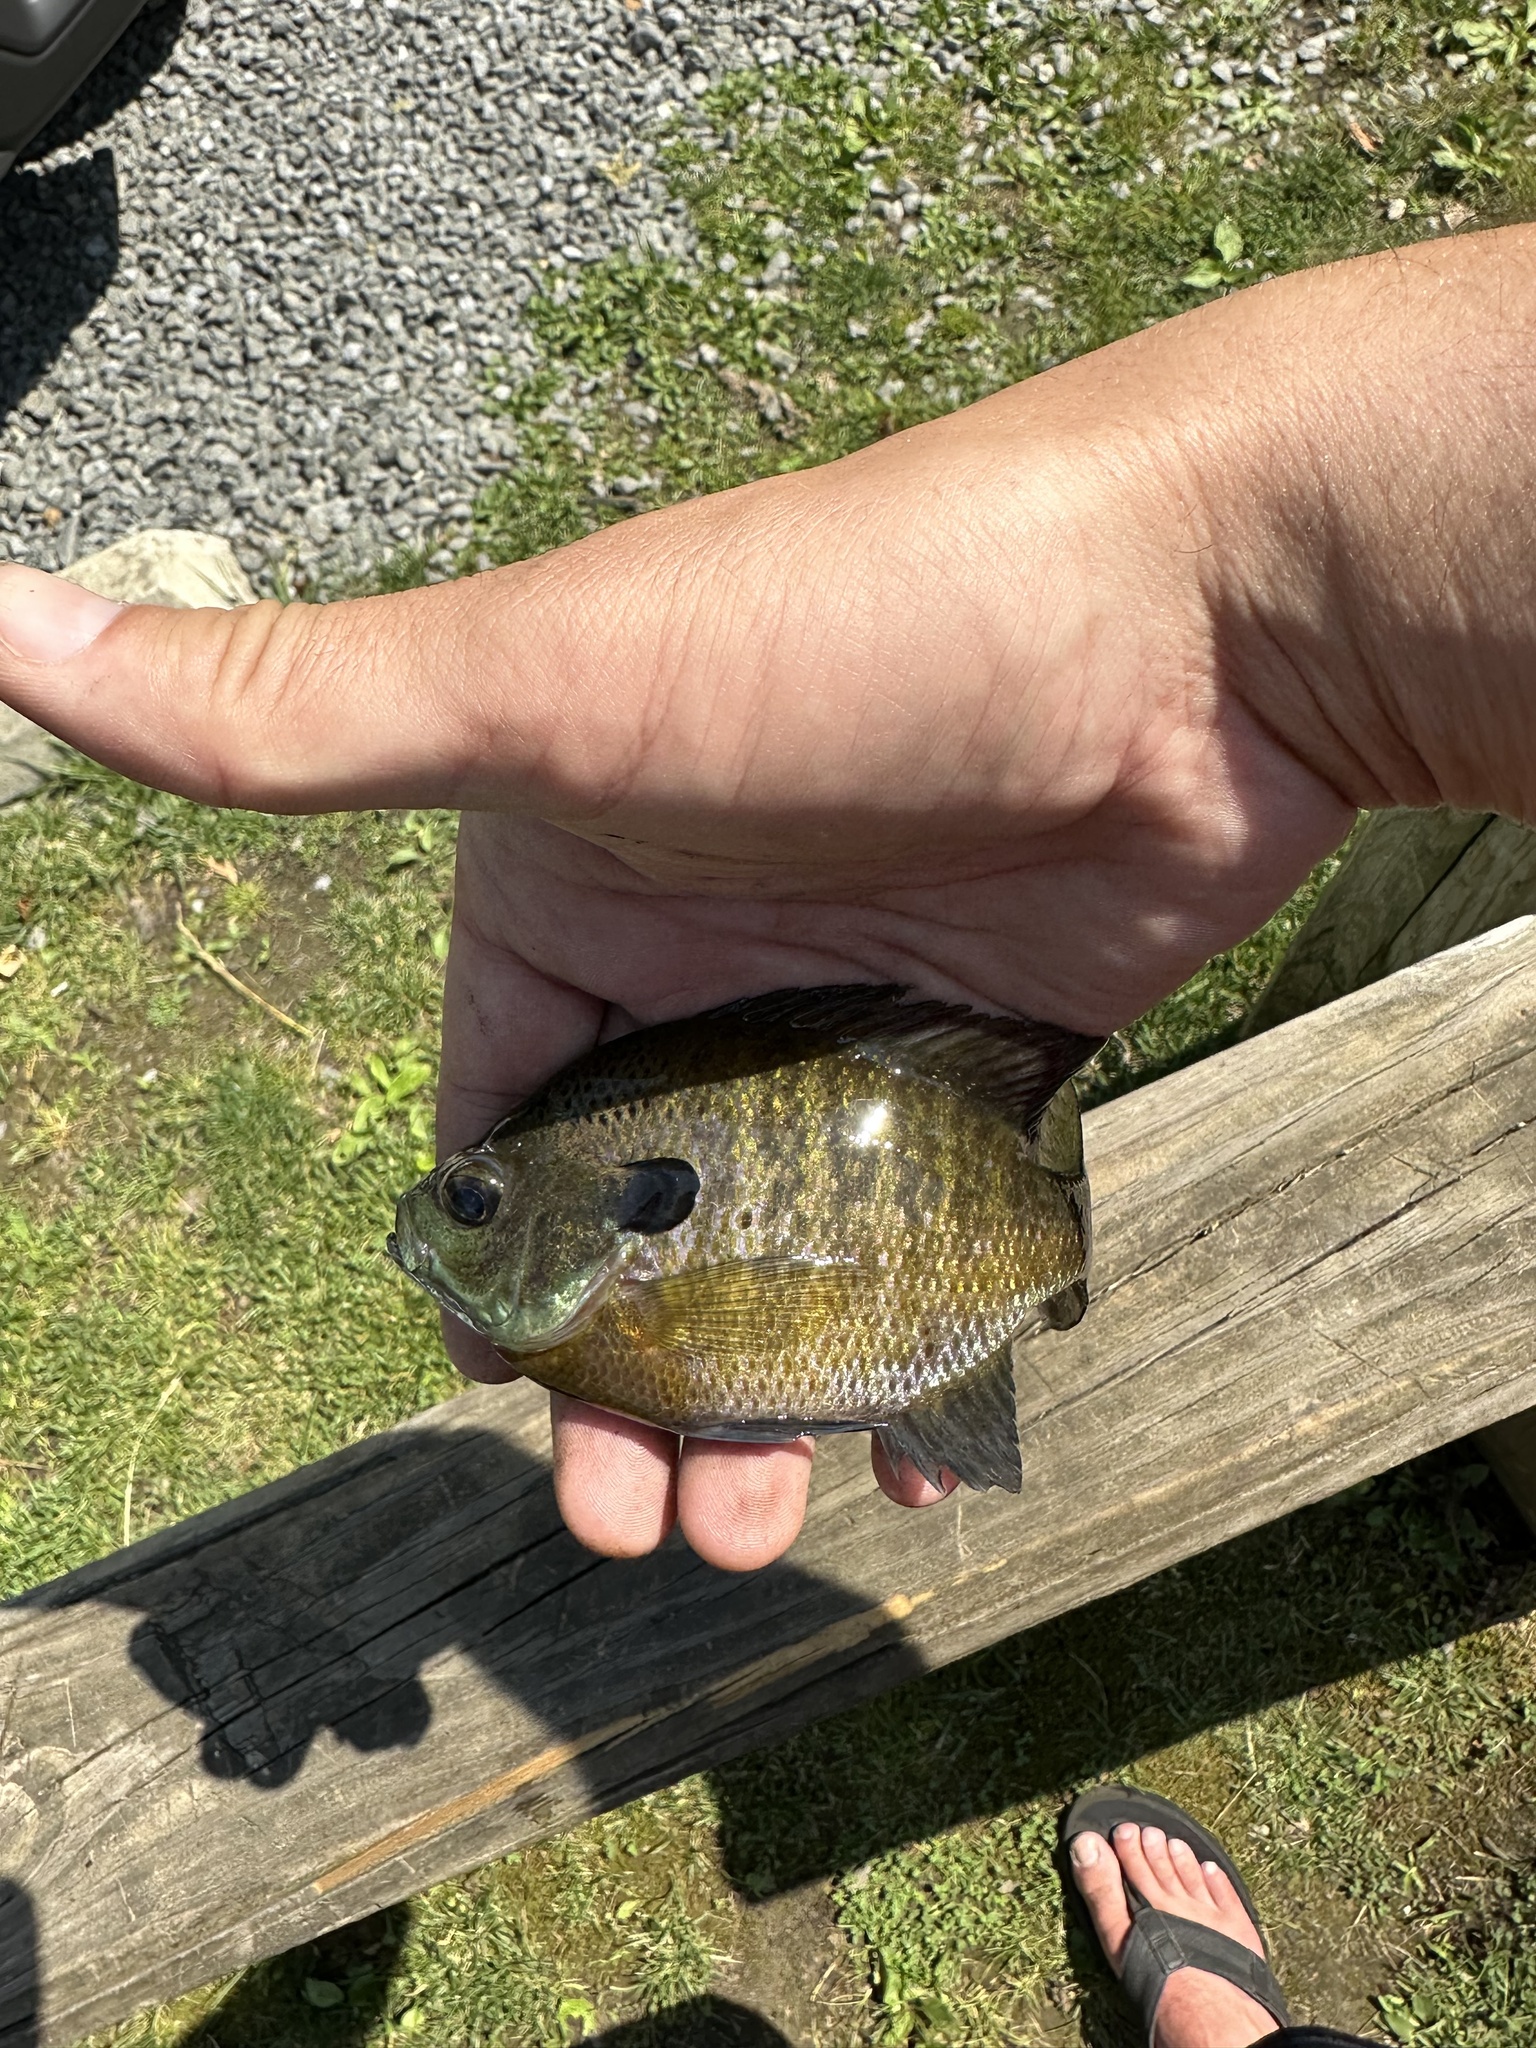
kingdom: Animalia
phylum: Chordata
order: Perciformes
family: Centrarchidae
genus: Lepomis
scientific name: Lepomis macrochirus
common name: Bluegill
